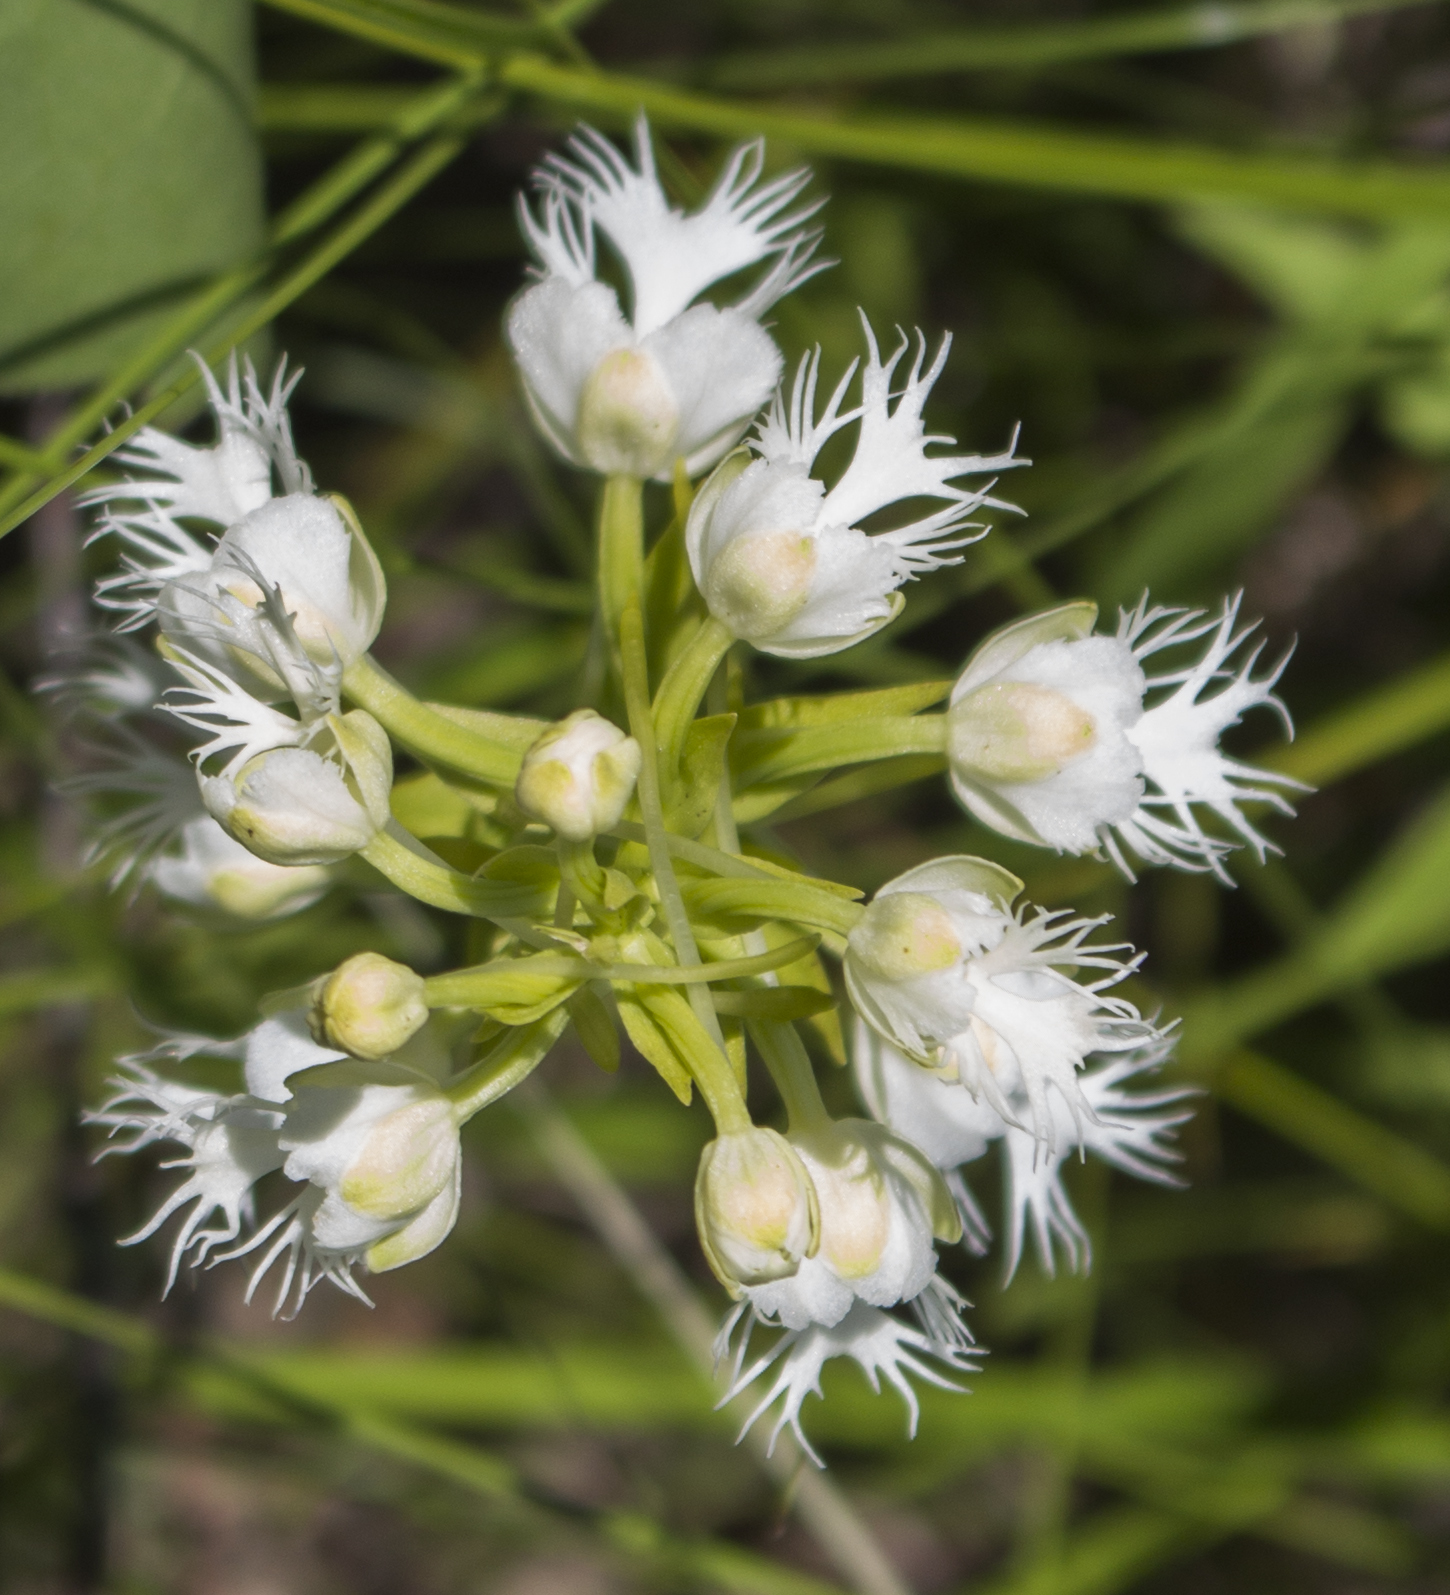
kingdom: Plantae
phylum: Tracheophyta
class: Liliopsida
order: Asparagales
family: Orchidaceae
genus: Platanthera
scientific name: Platanthera leucophaea
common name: Eastern prairie white-fringed orchid
